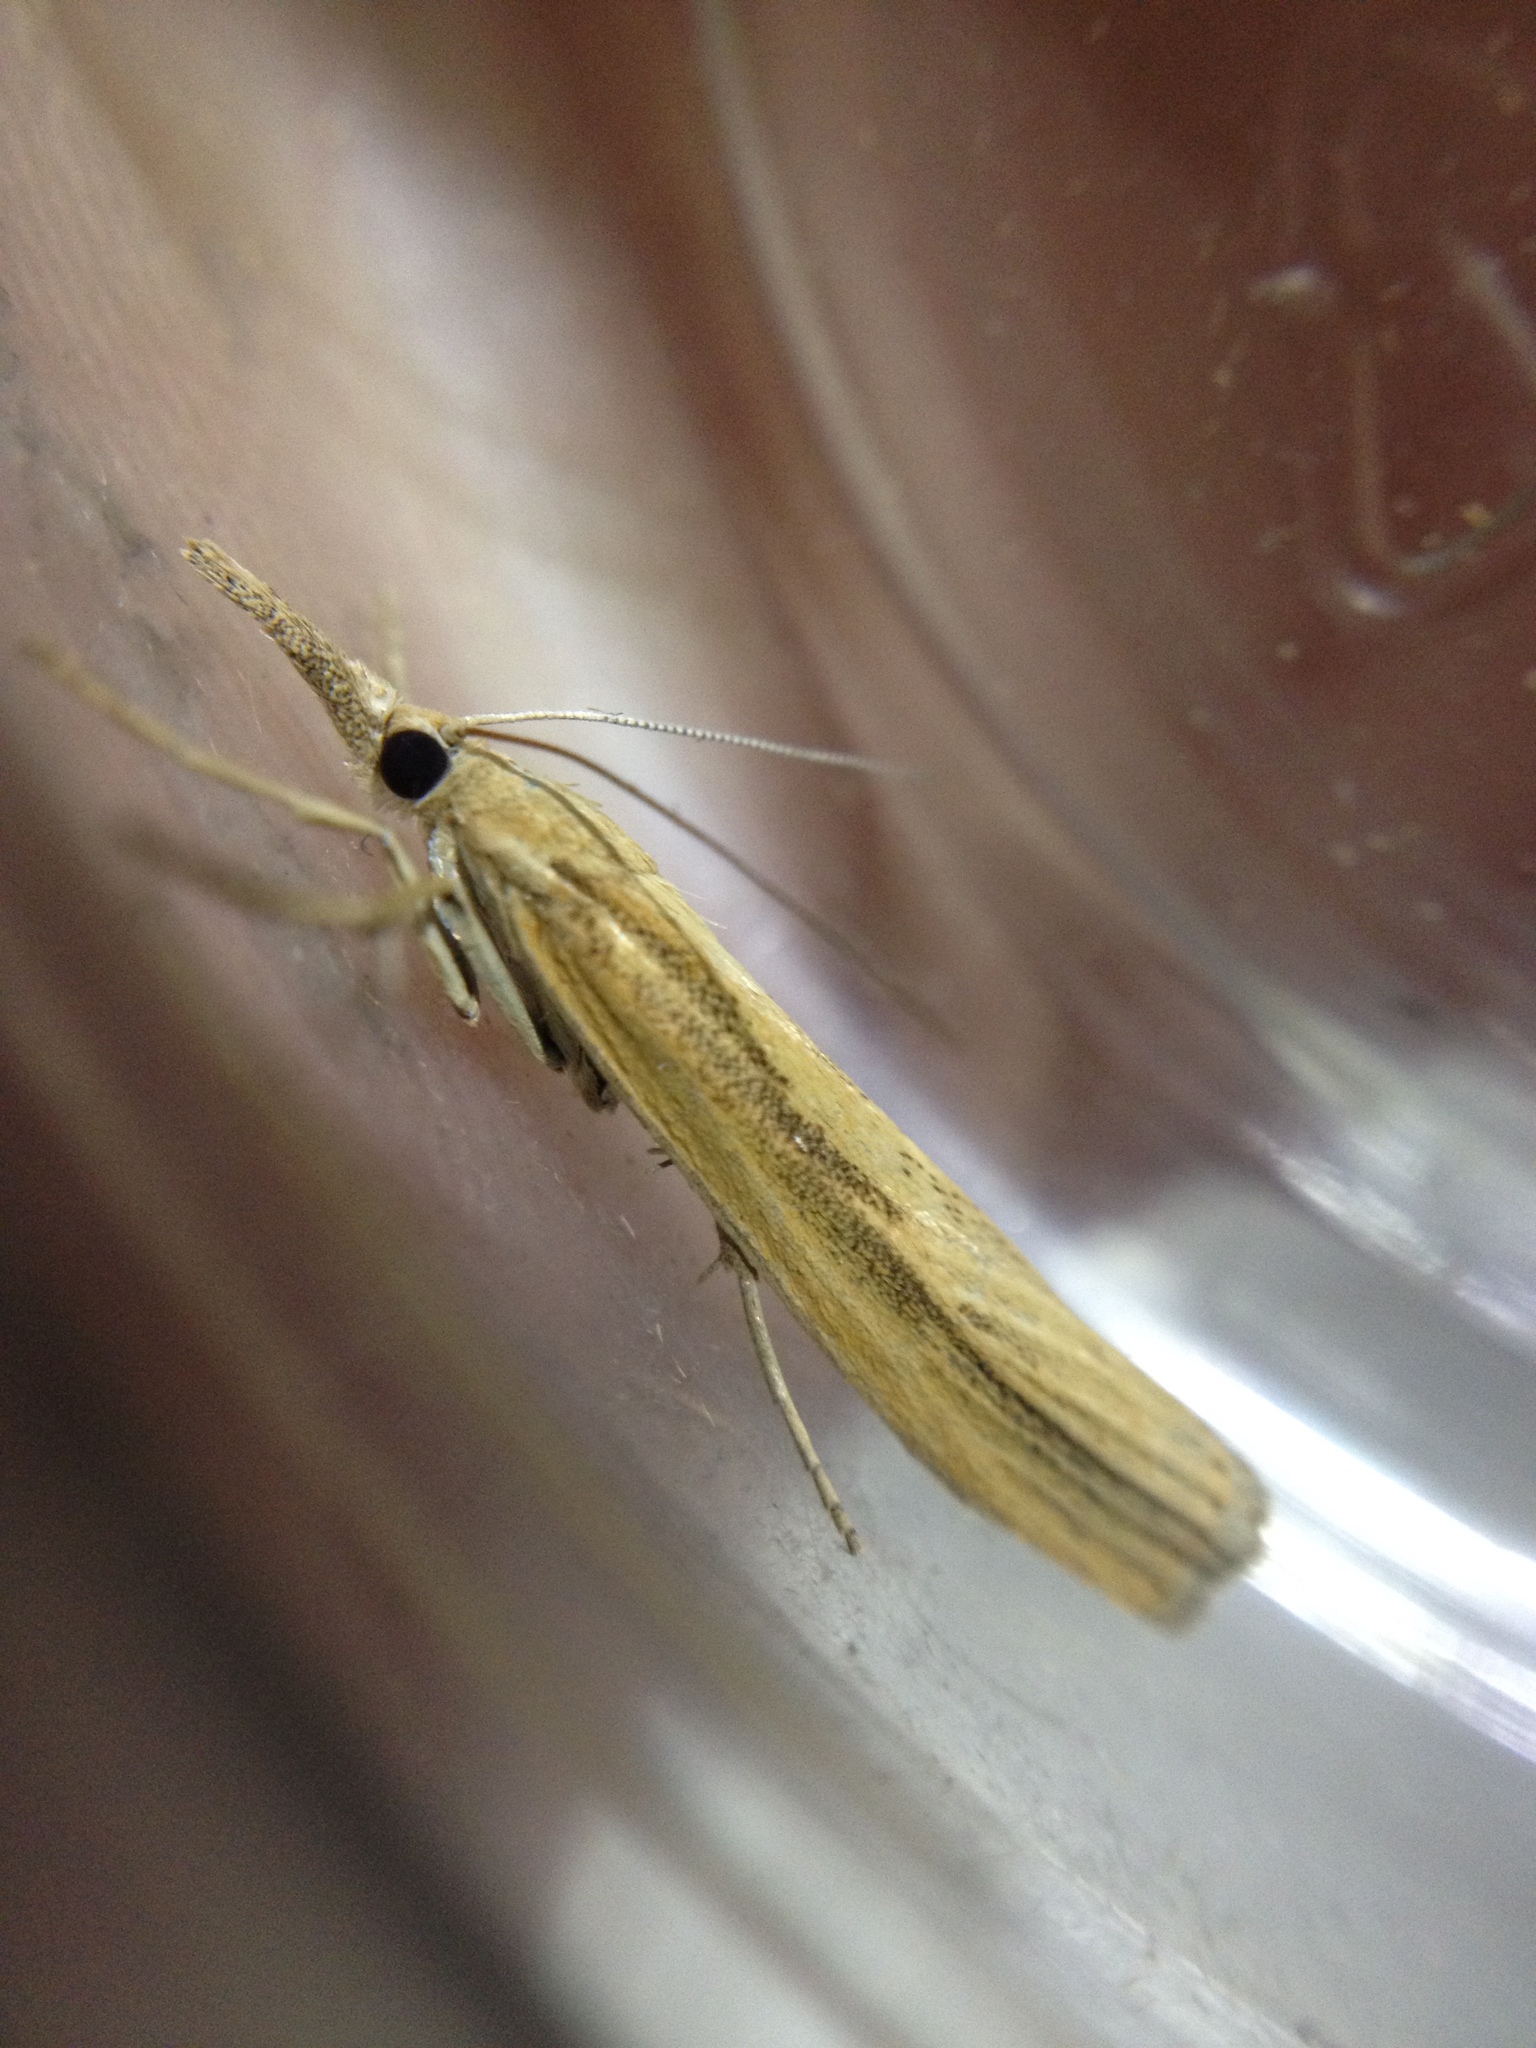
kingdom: Animalia
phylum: Arthropoda
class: Insecta
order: Lepidoptera
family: Crambidae
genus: Agriphila
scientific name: Agriphila tristellus
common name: Common grass-veneer
